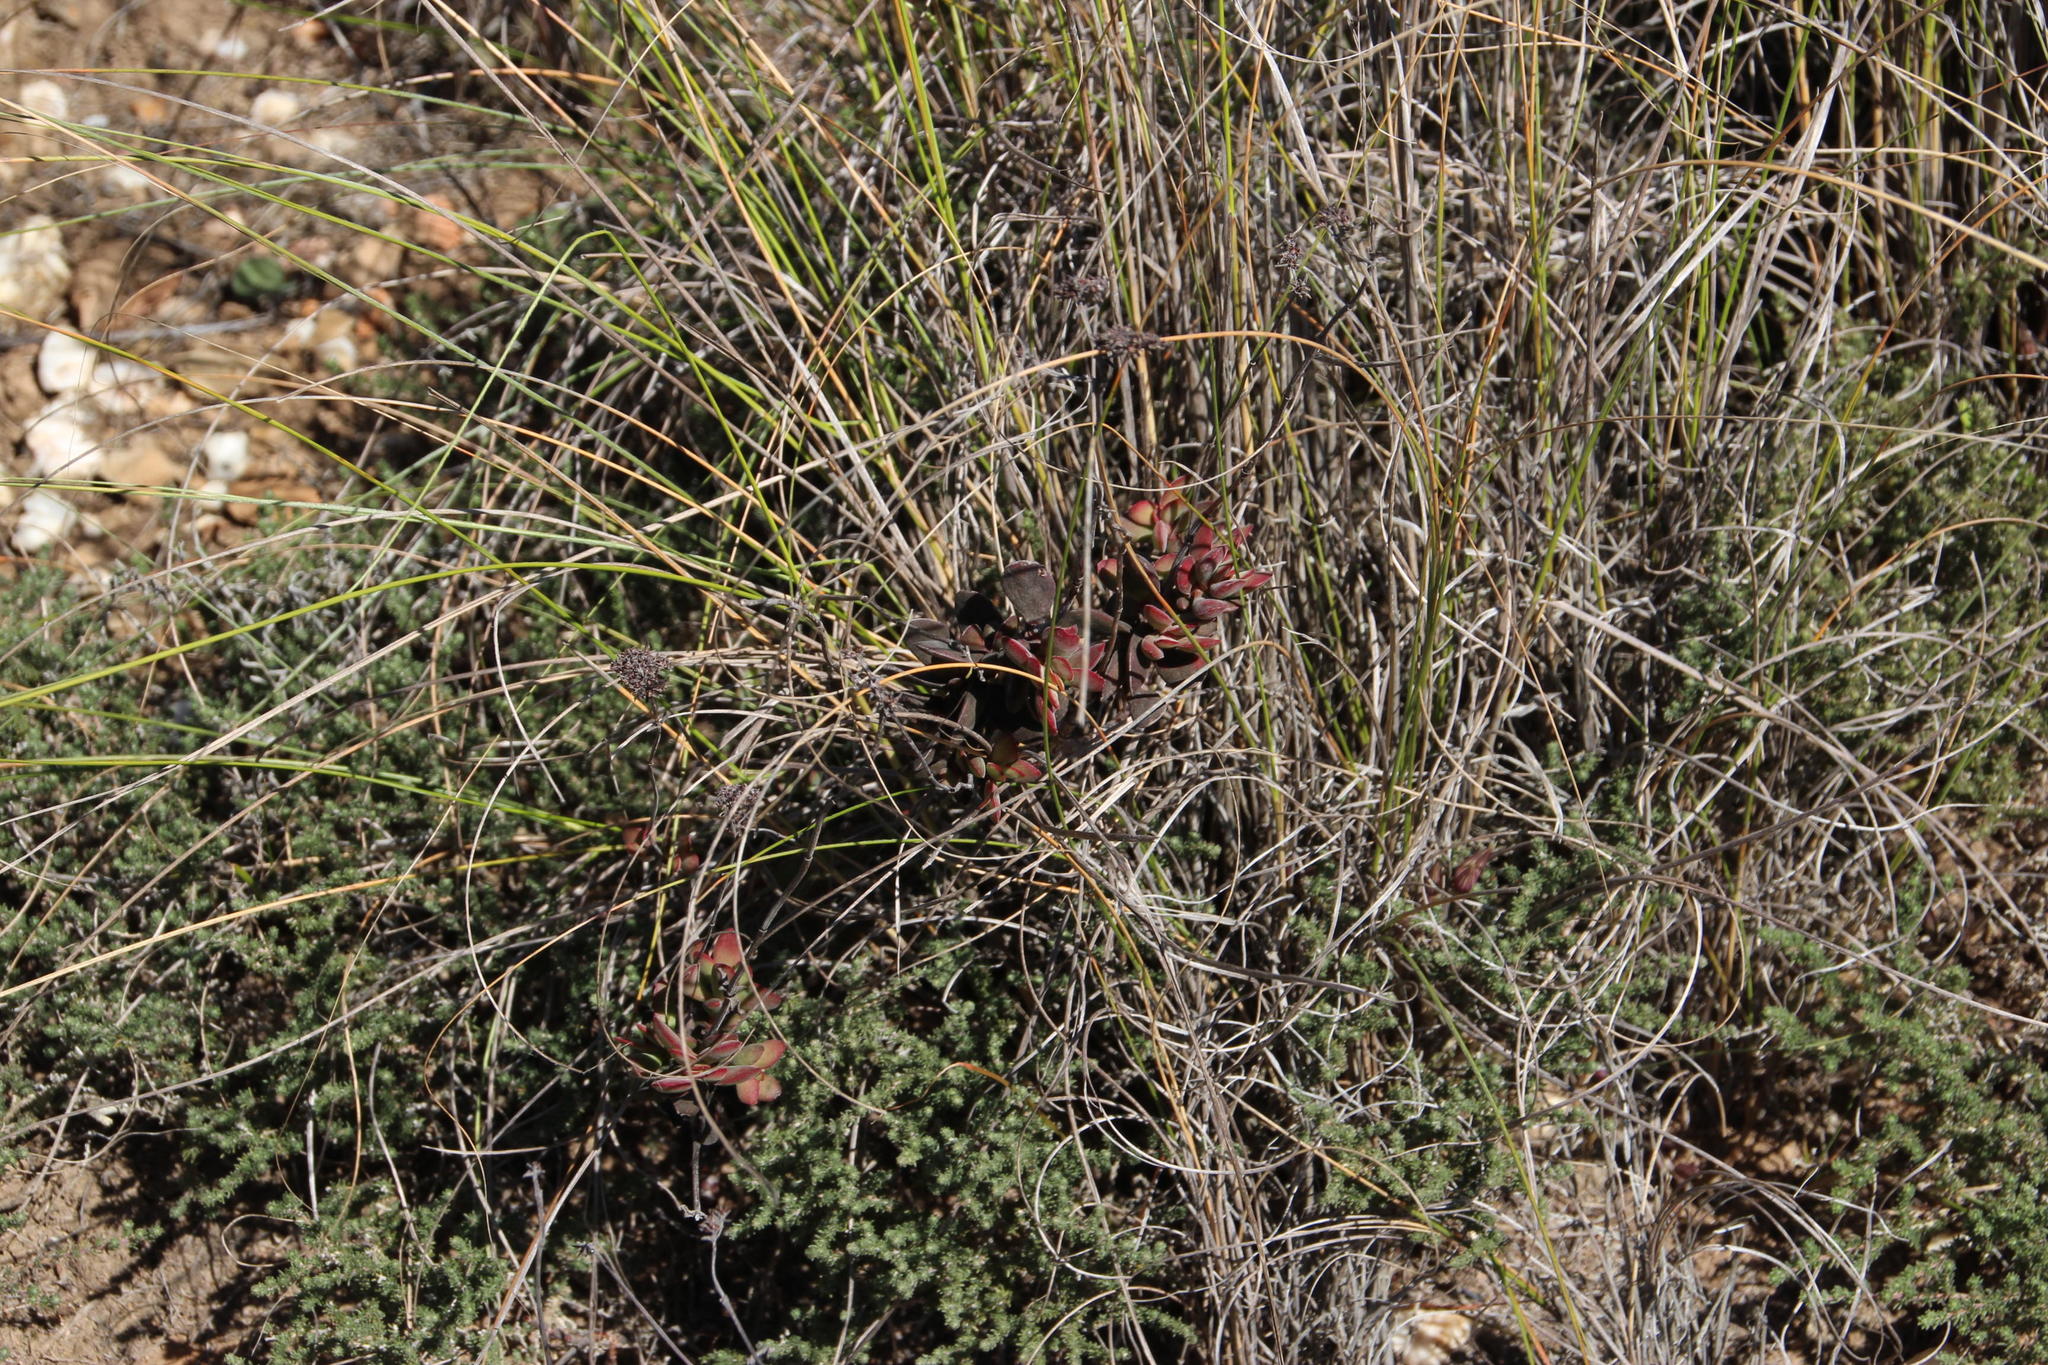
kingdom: Plantae
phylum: Tracheophyta
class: Magnoliopsida
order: Saxifragales
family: Crassulaceae
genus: Crassula
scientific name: Crassula atropurpurea
